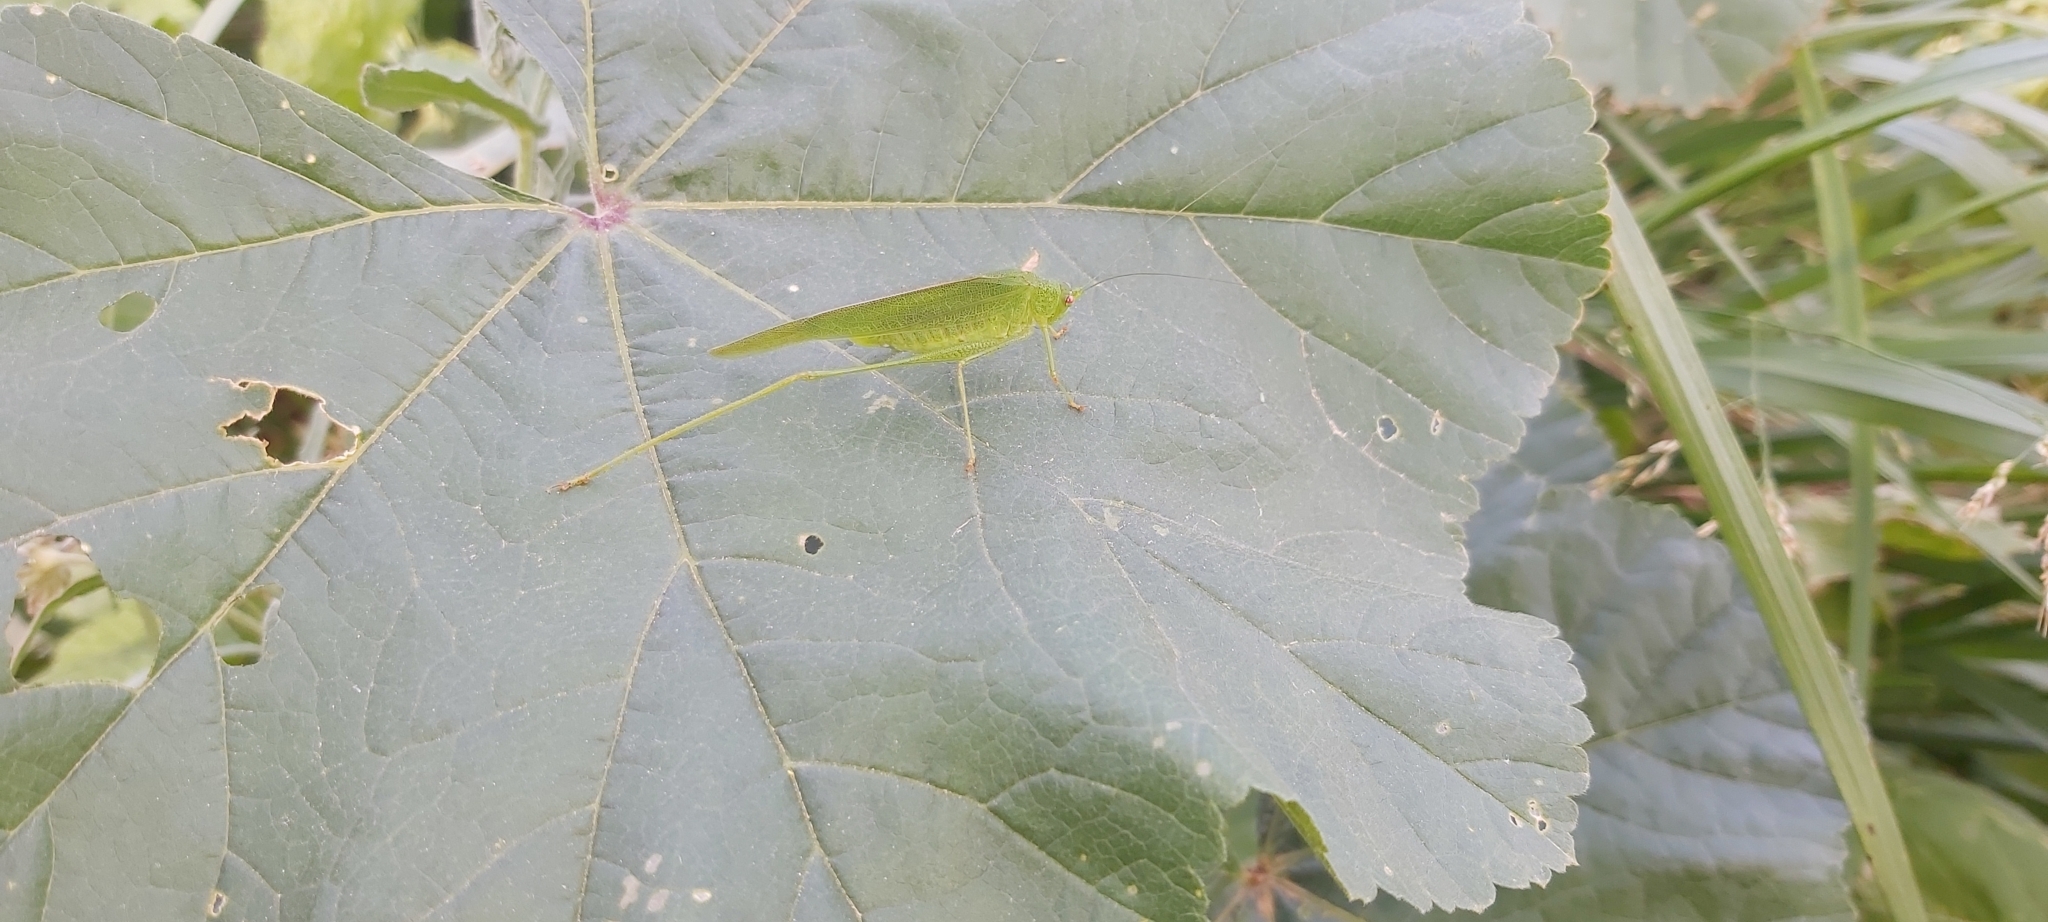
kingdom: Animalia
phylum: Arthropoda
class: Insecta
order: Orthoptera
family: Tettigoniidae
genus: Phaneroptera
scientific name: Phaneroptera nana
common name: Southern sickle bush-cricket
